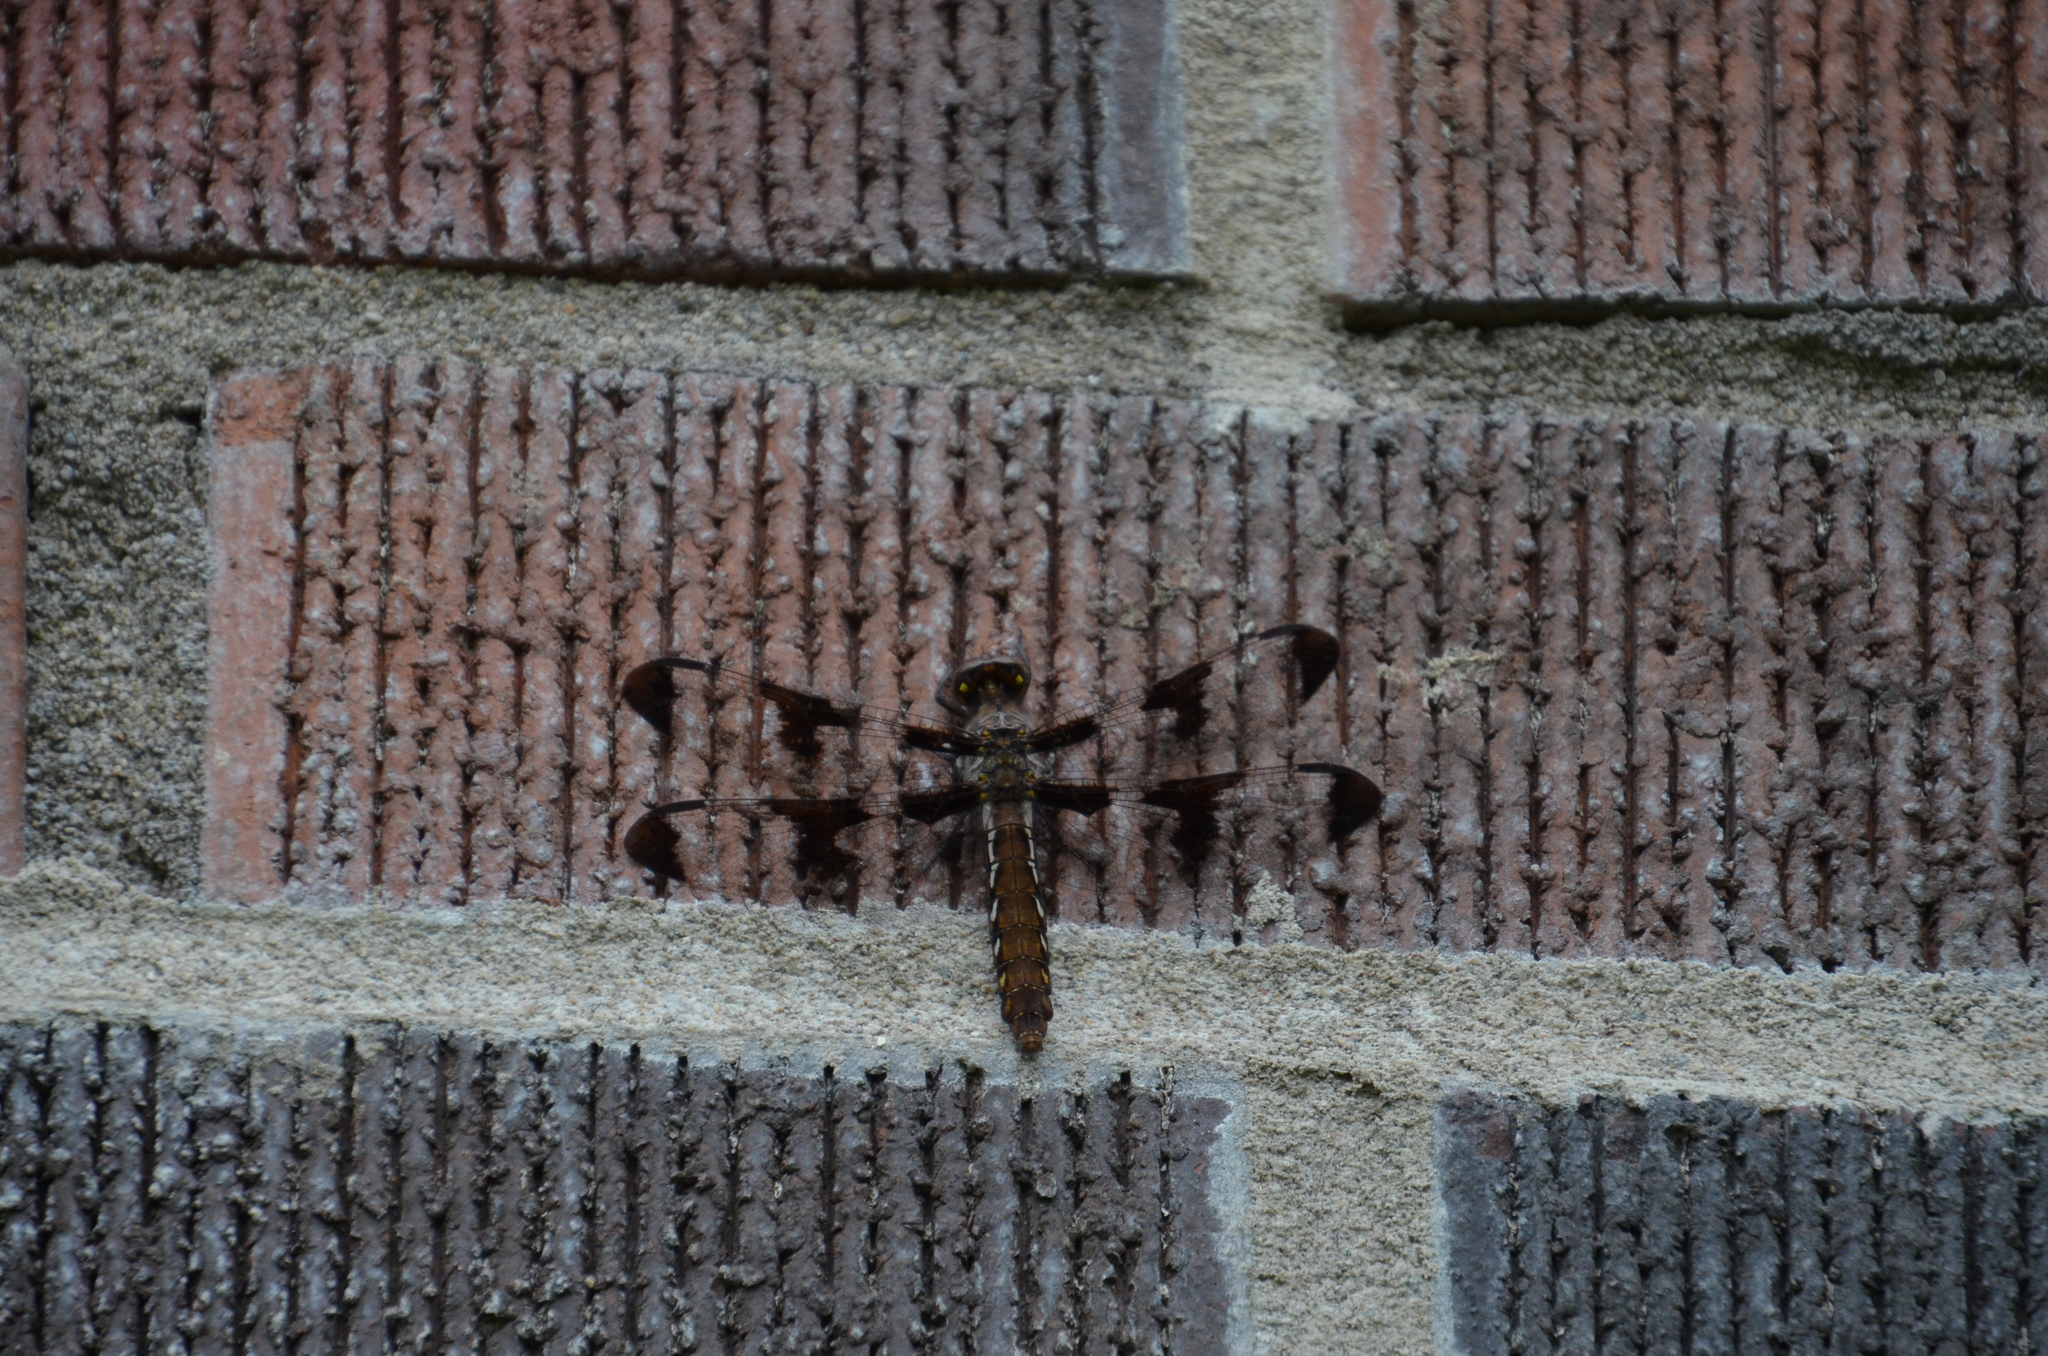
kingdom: Animalia
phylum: Arthropoda
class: Insecta
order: Odonata
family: Libellulidae
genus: Plathemis
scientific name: Plathemis lydia
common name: Common whitetail
